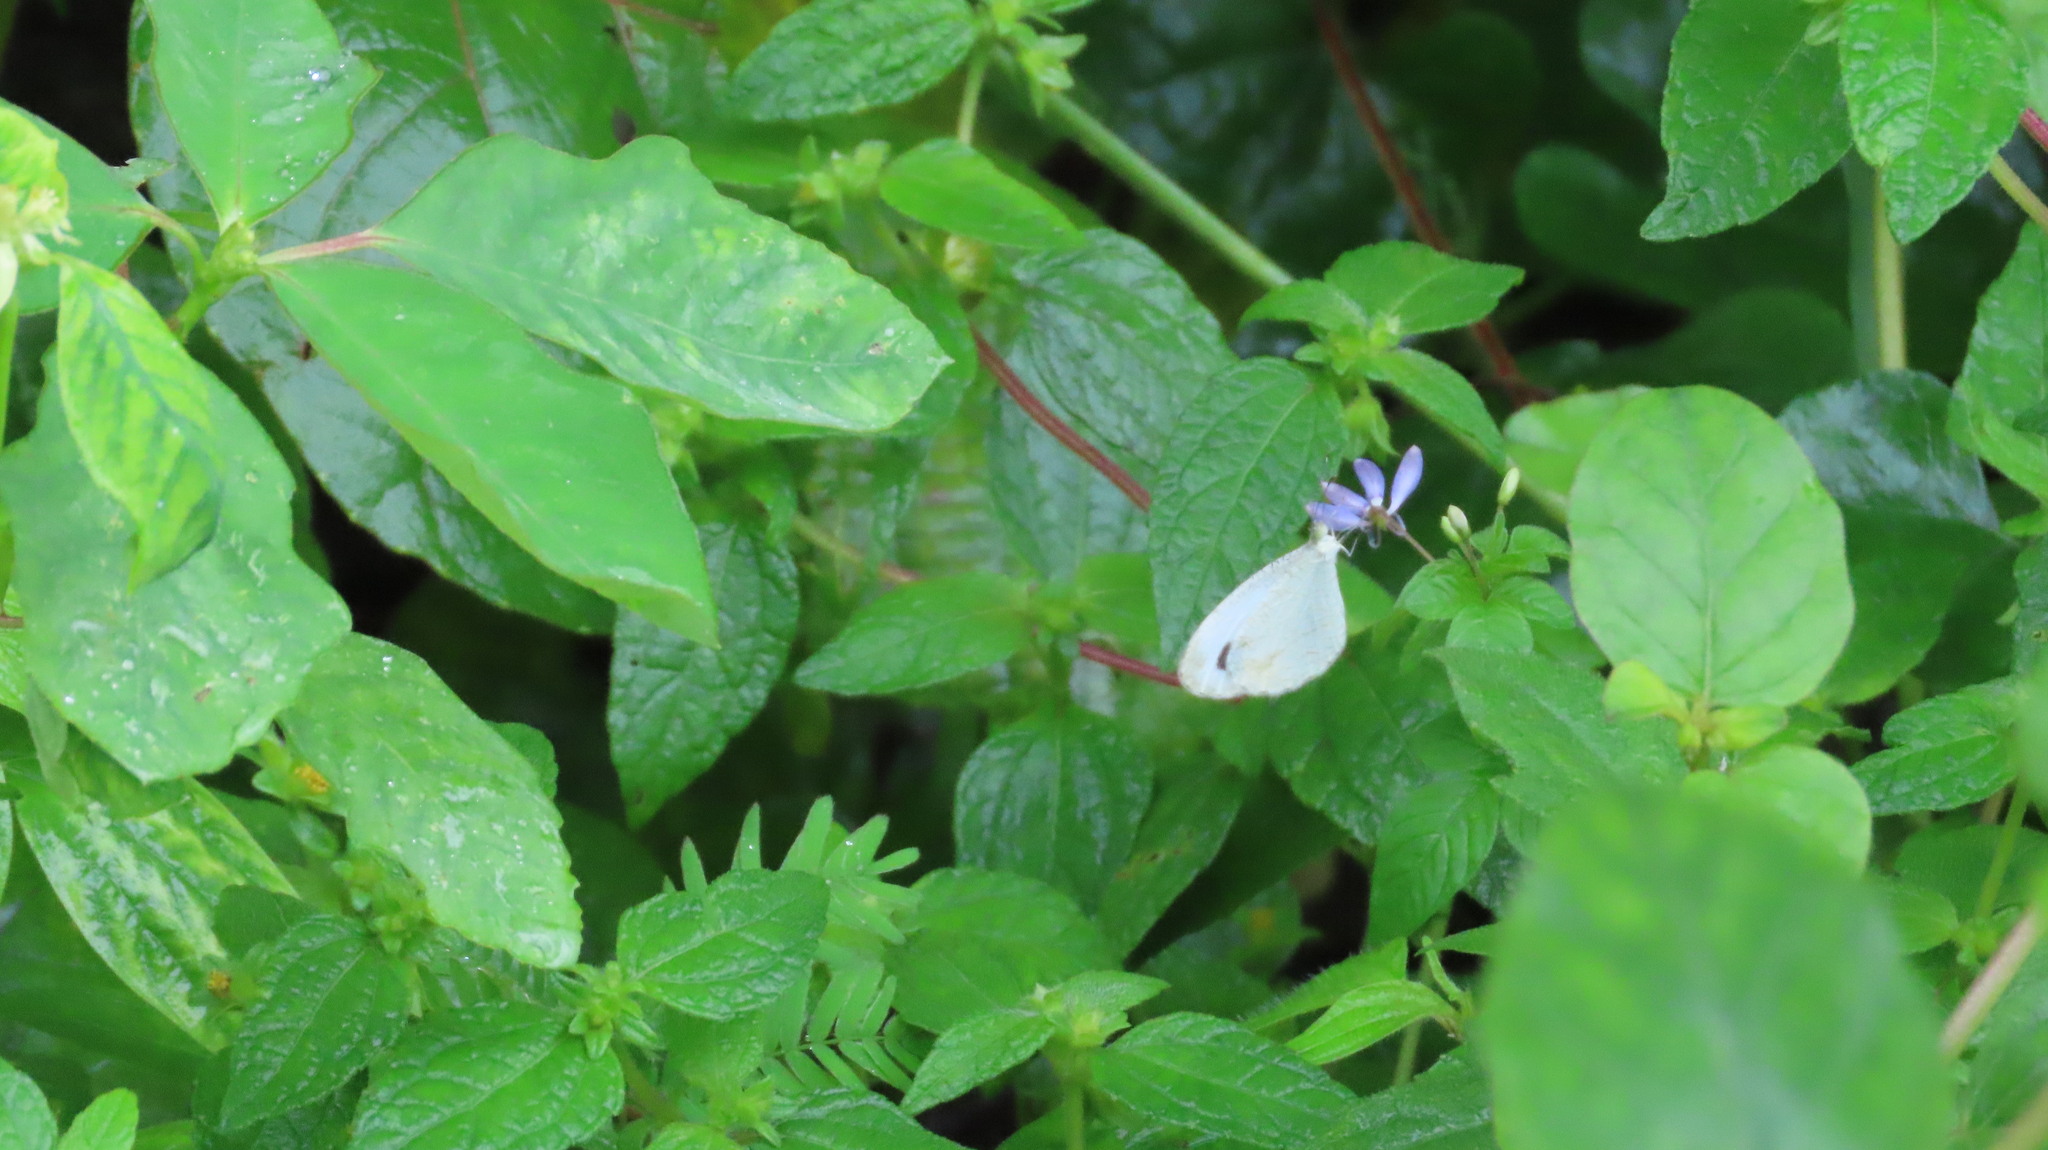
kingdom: Animalia
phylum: Arthropoda
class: Insecta
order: Lepidoptera
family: Pieridae
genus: Leptosia
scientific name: Leptosia nina
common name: Psyche
